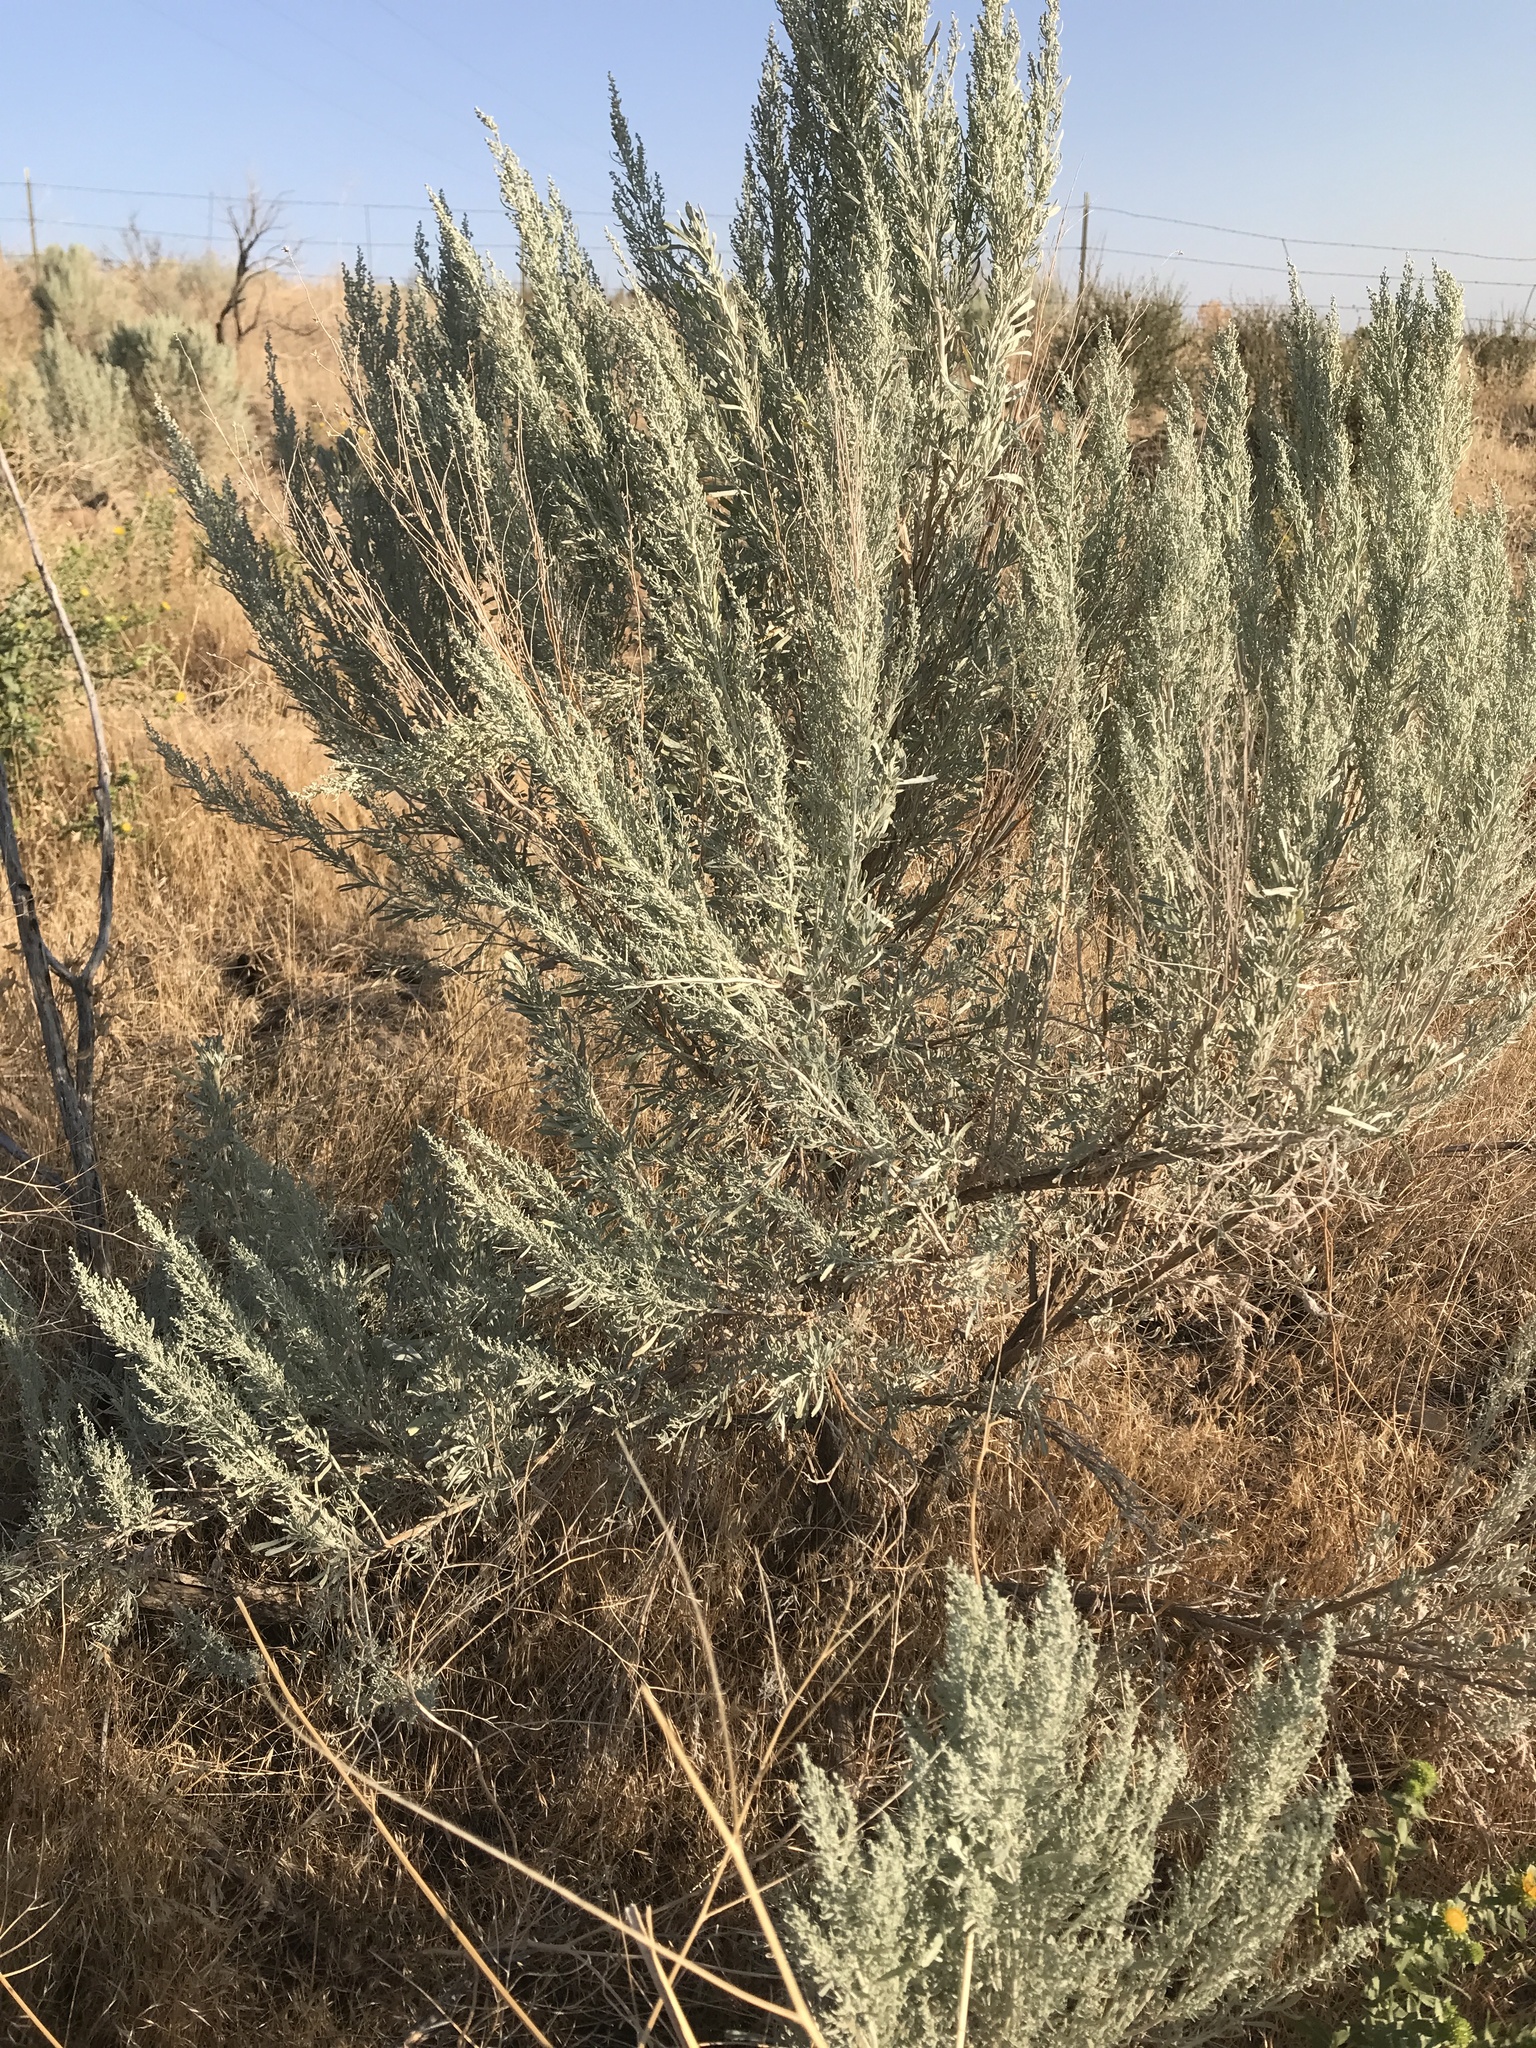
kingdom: Plantae
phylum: Tracheophyta
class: Magnoliopsida
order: Asterales
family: Asteraceae
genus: Artemisia
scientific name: Artemisia tridentata
